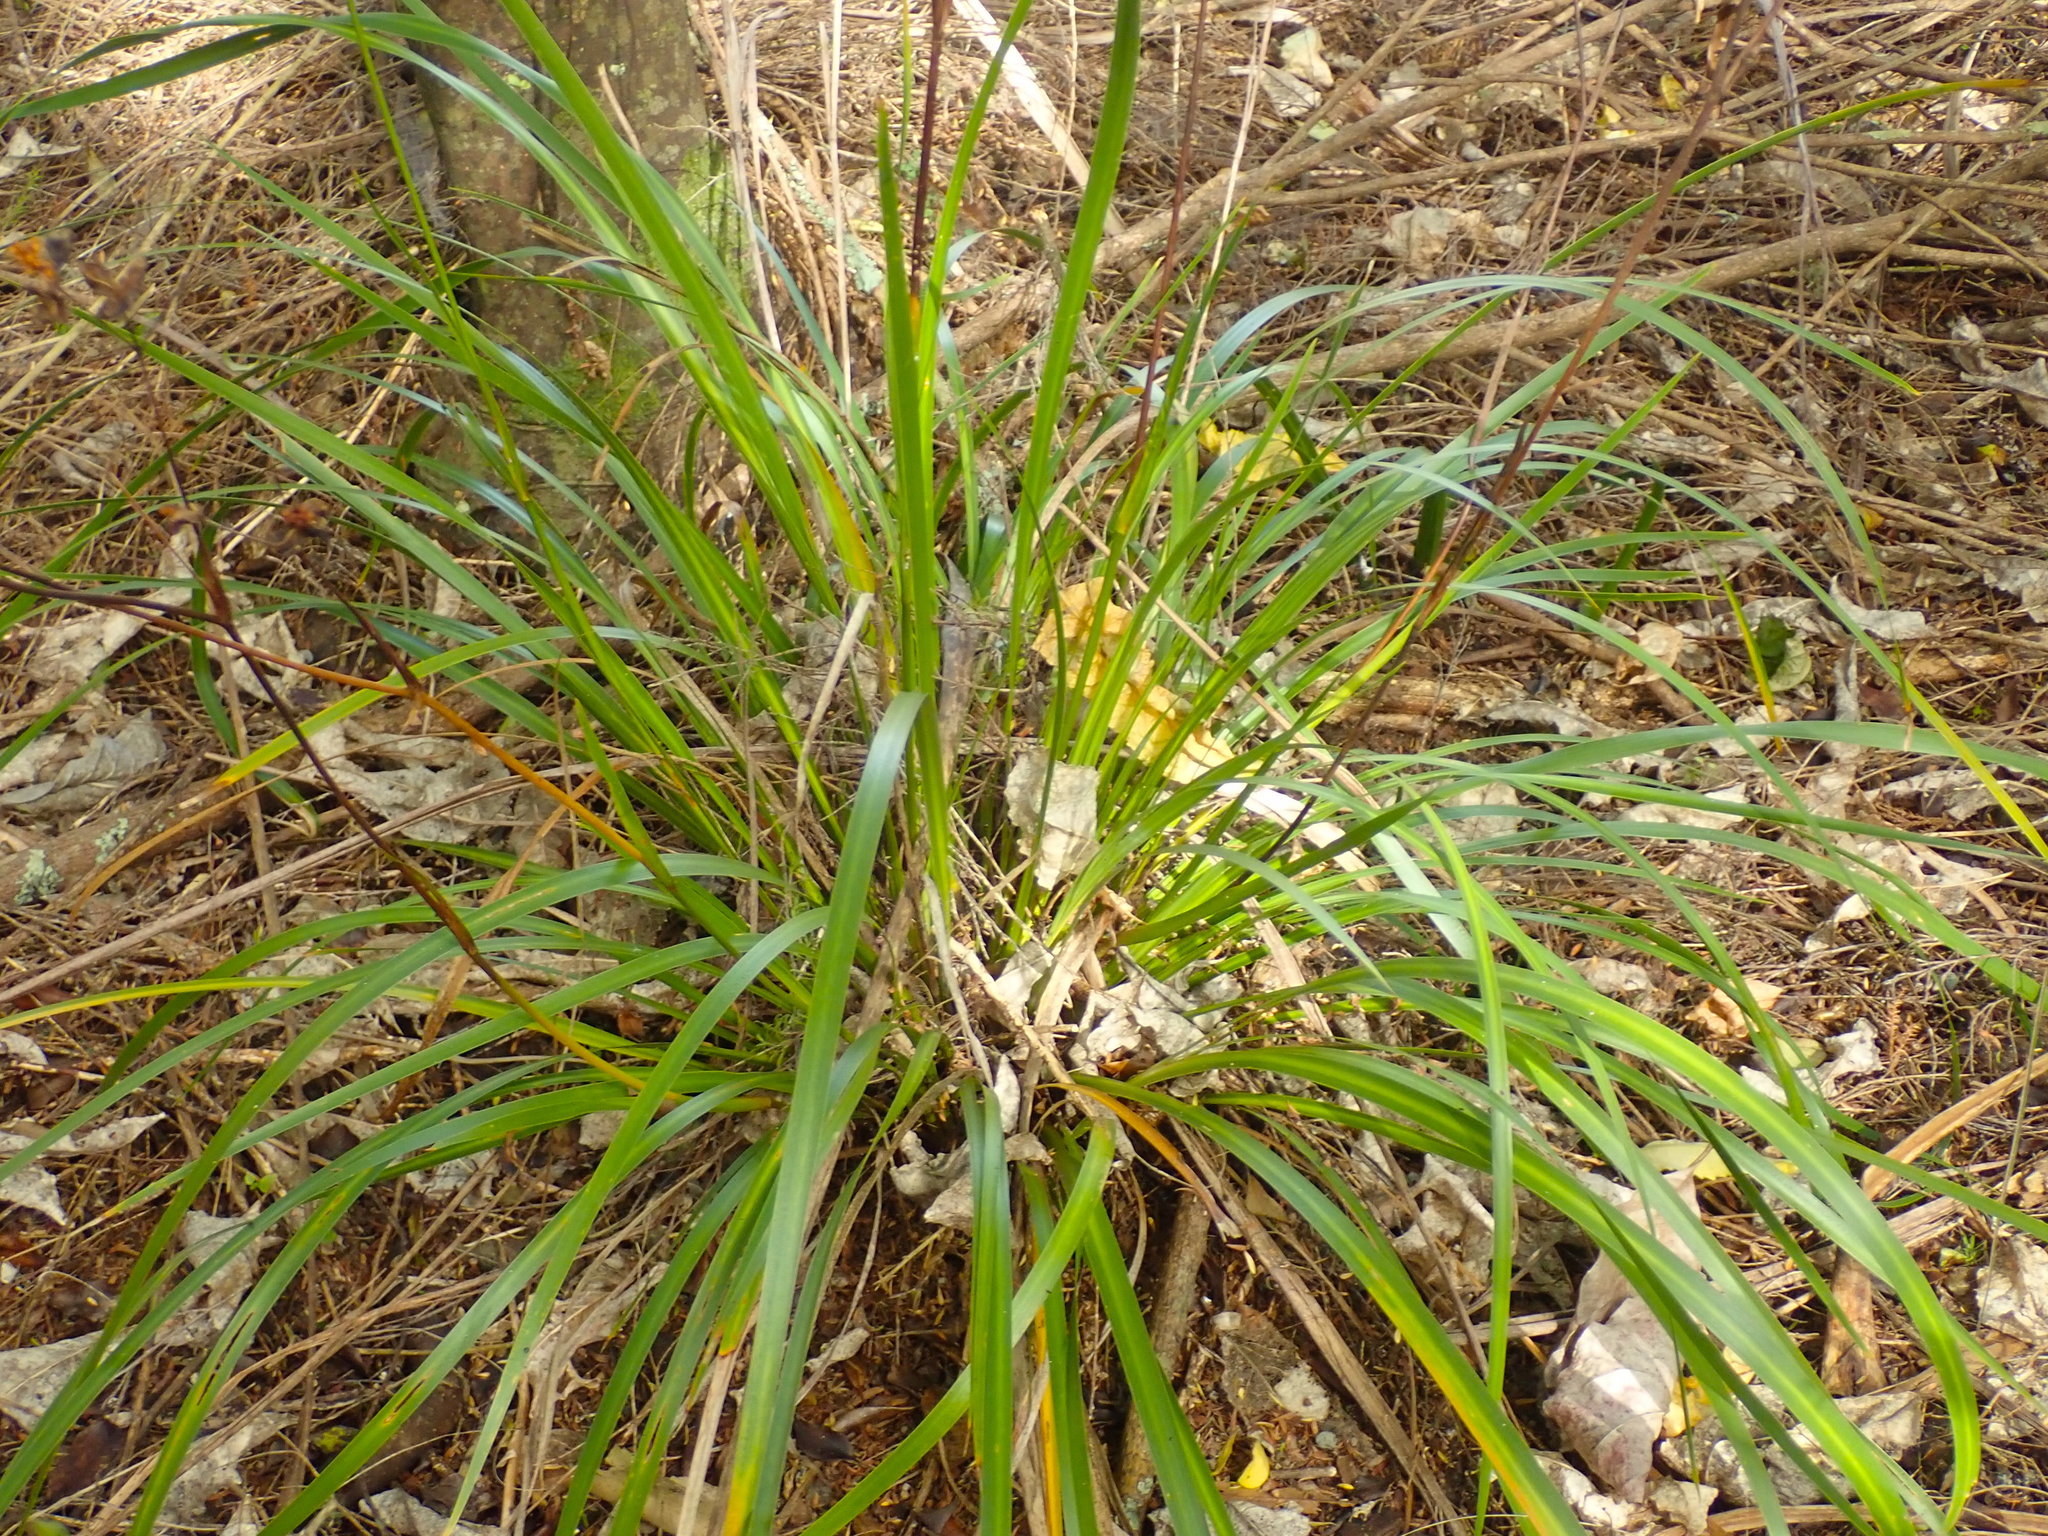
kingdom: Plantae
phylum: Tracheophyta
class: Liliopsida
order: Poales
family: Cyperaceae
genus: Carex
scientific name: Carex uncinata
